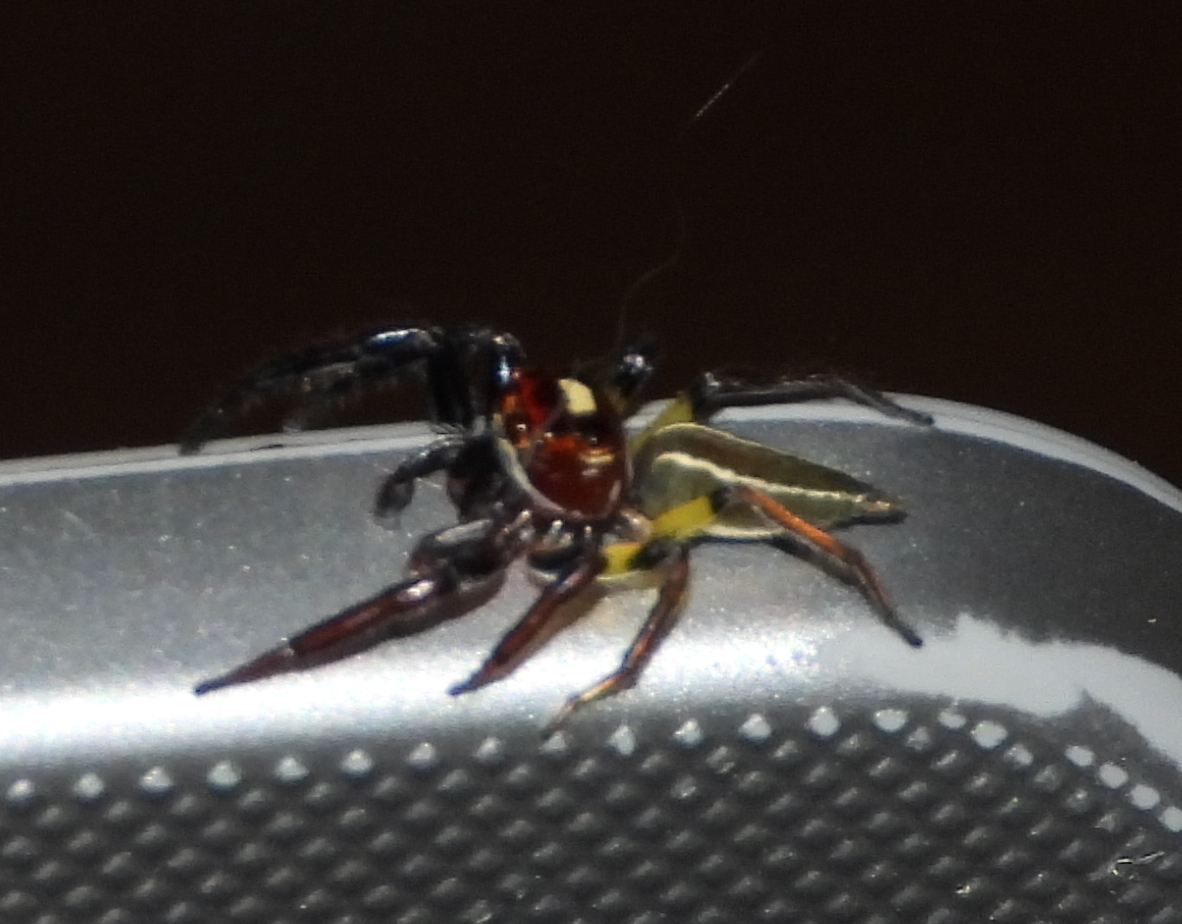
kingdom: Animalia
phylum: Arthropoda
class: Arachnida
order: Araneae
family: Salticidae
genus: Colonus
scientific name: Colonus sylvanus
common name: Jumping spiders
